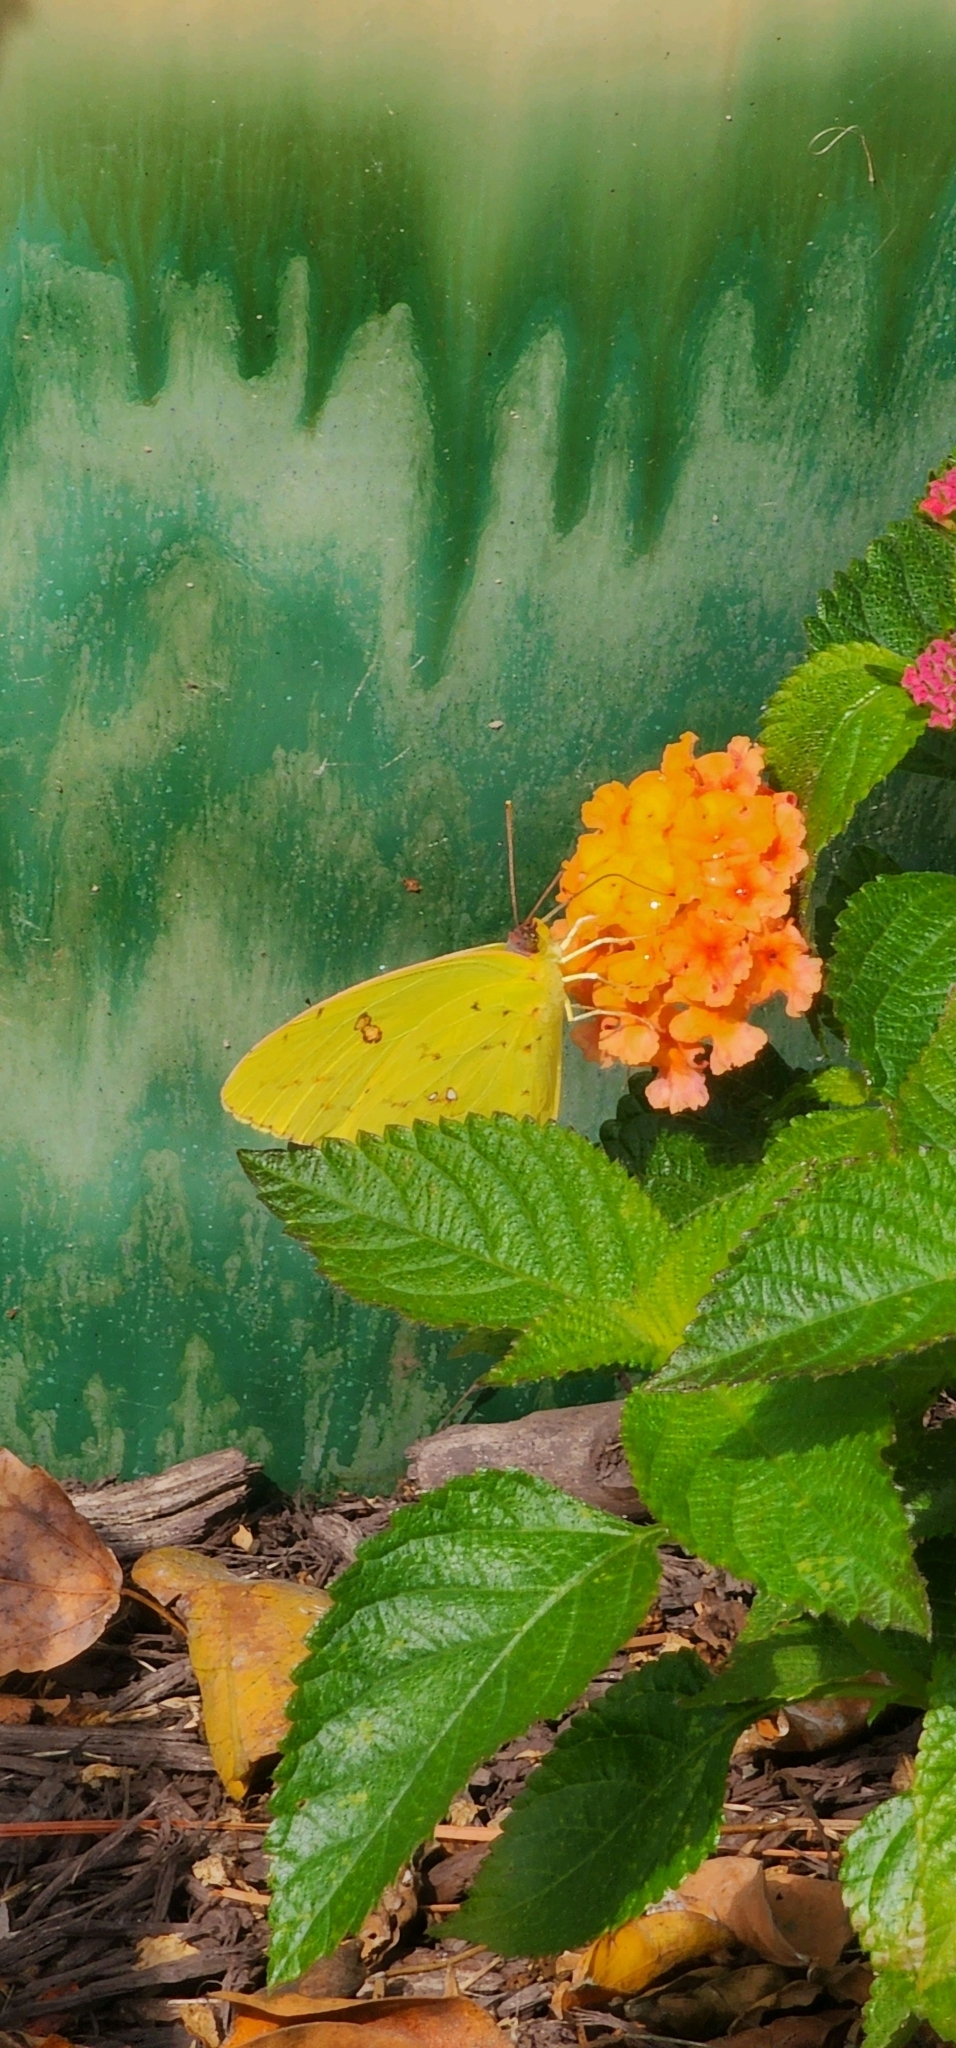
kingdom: Animalia
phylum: Arthropoda
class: Insecta
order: Lepidoptera
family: Pieridae
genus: Phoebis
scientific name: Phoebis sennae
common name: Cloudless sulphur
